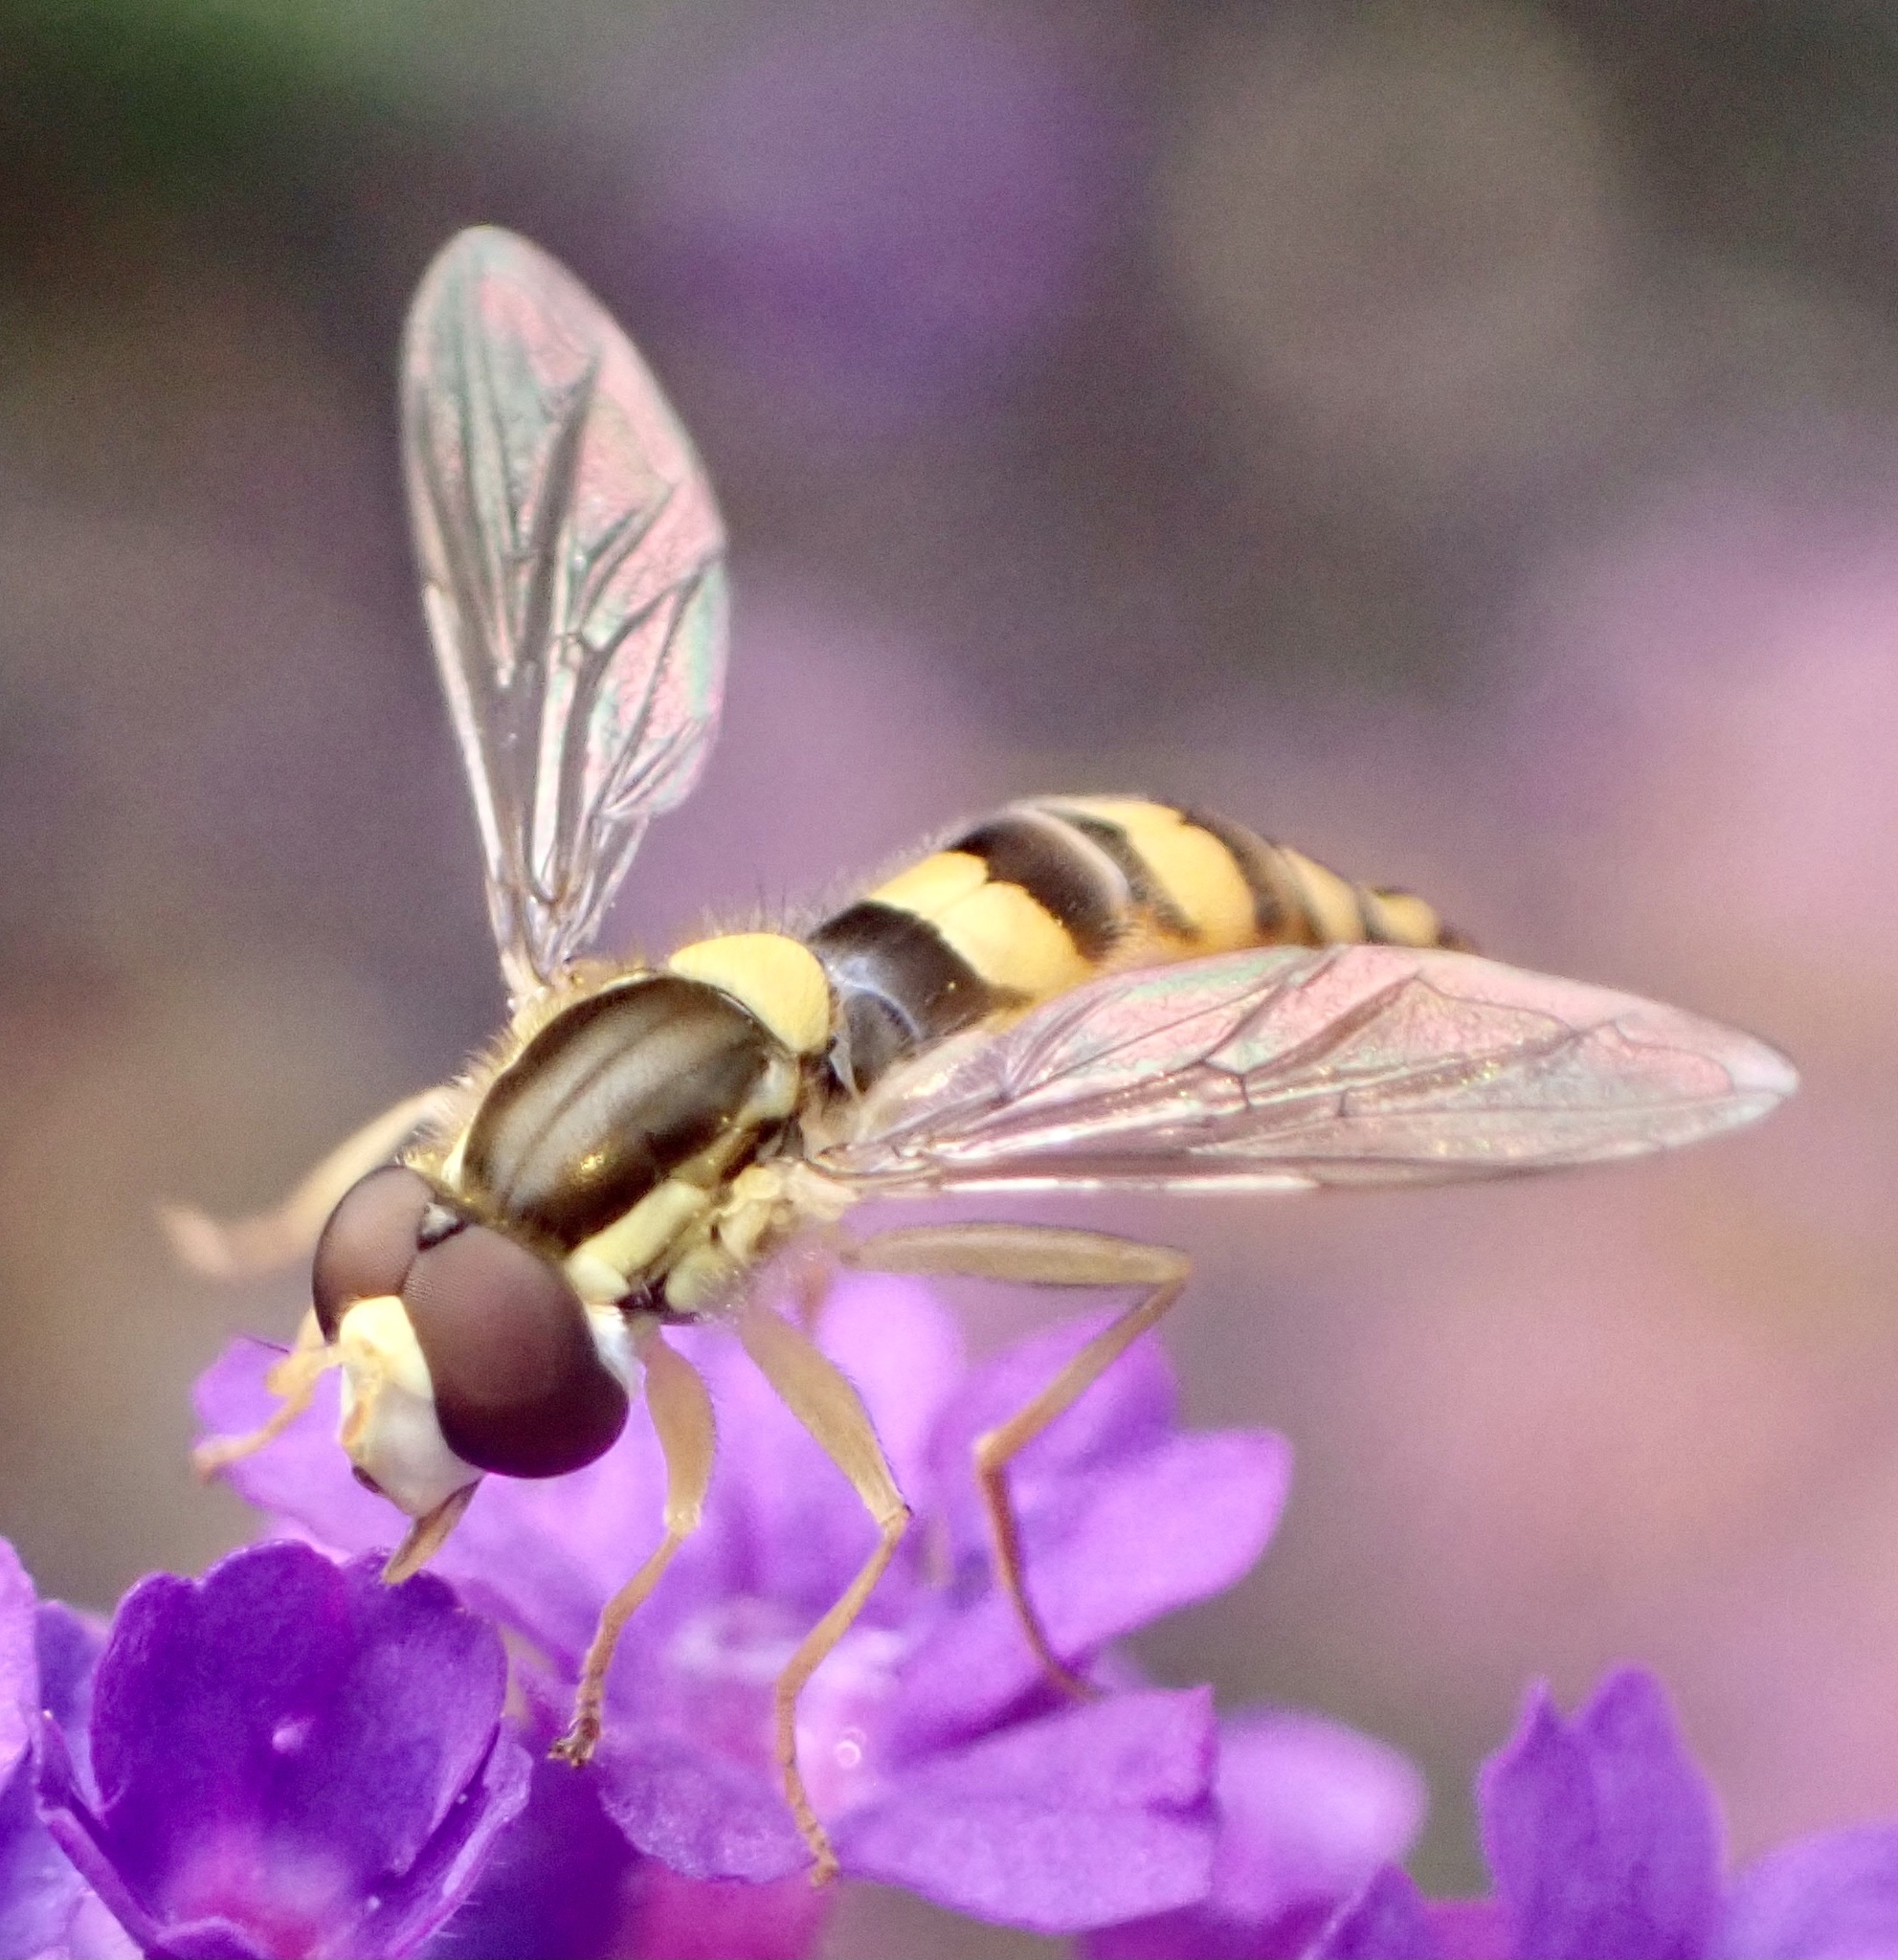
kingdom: Animalia
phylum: Arthropoda
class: Insecta
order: Diptera
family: Syrphidae
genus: Sphaerophoria
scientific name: Sphaerophoria scripta
